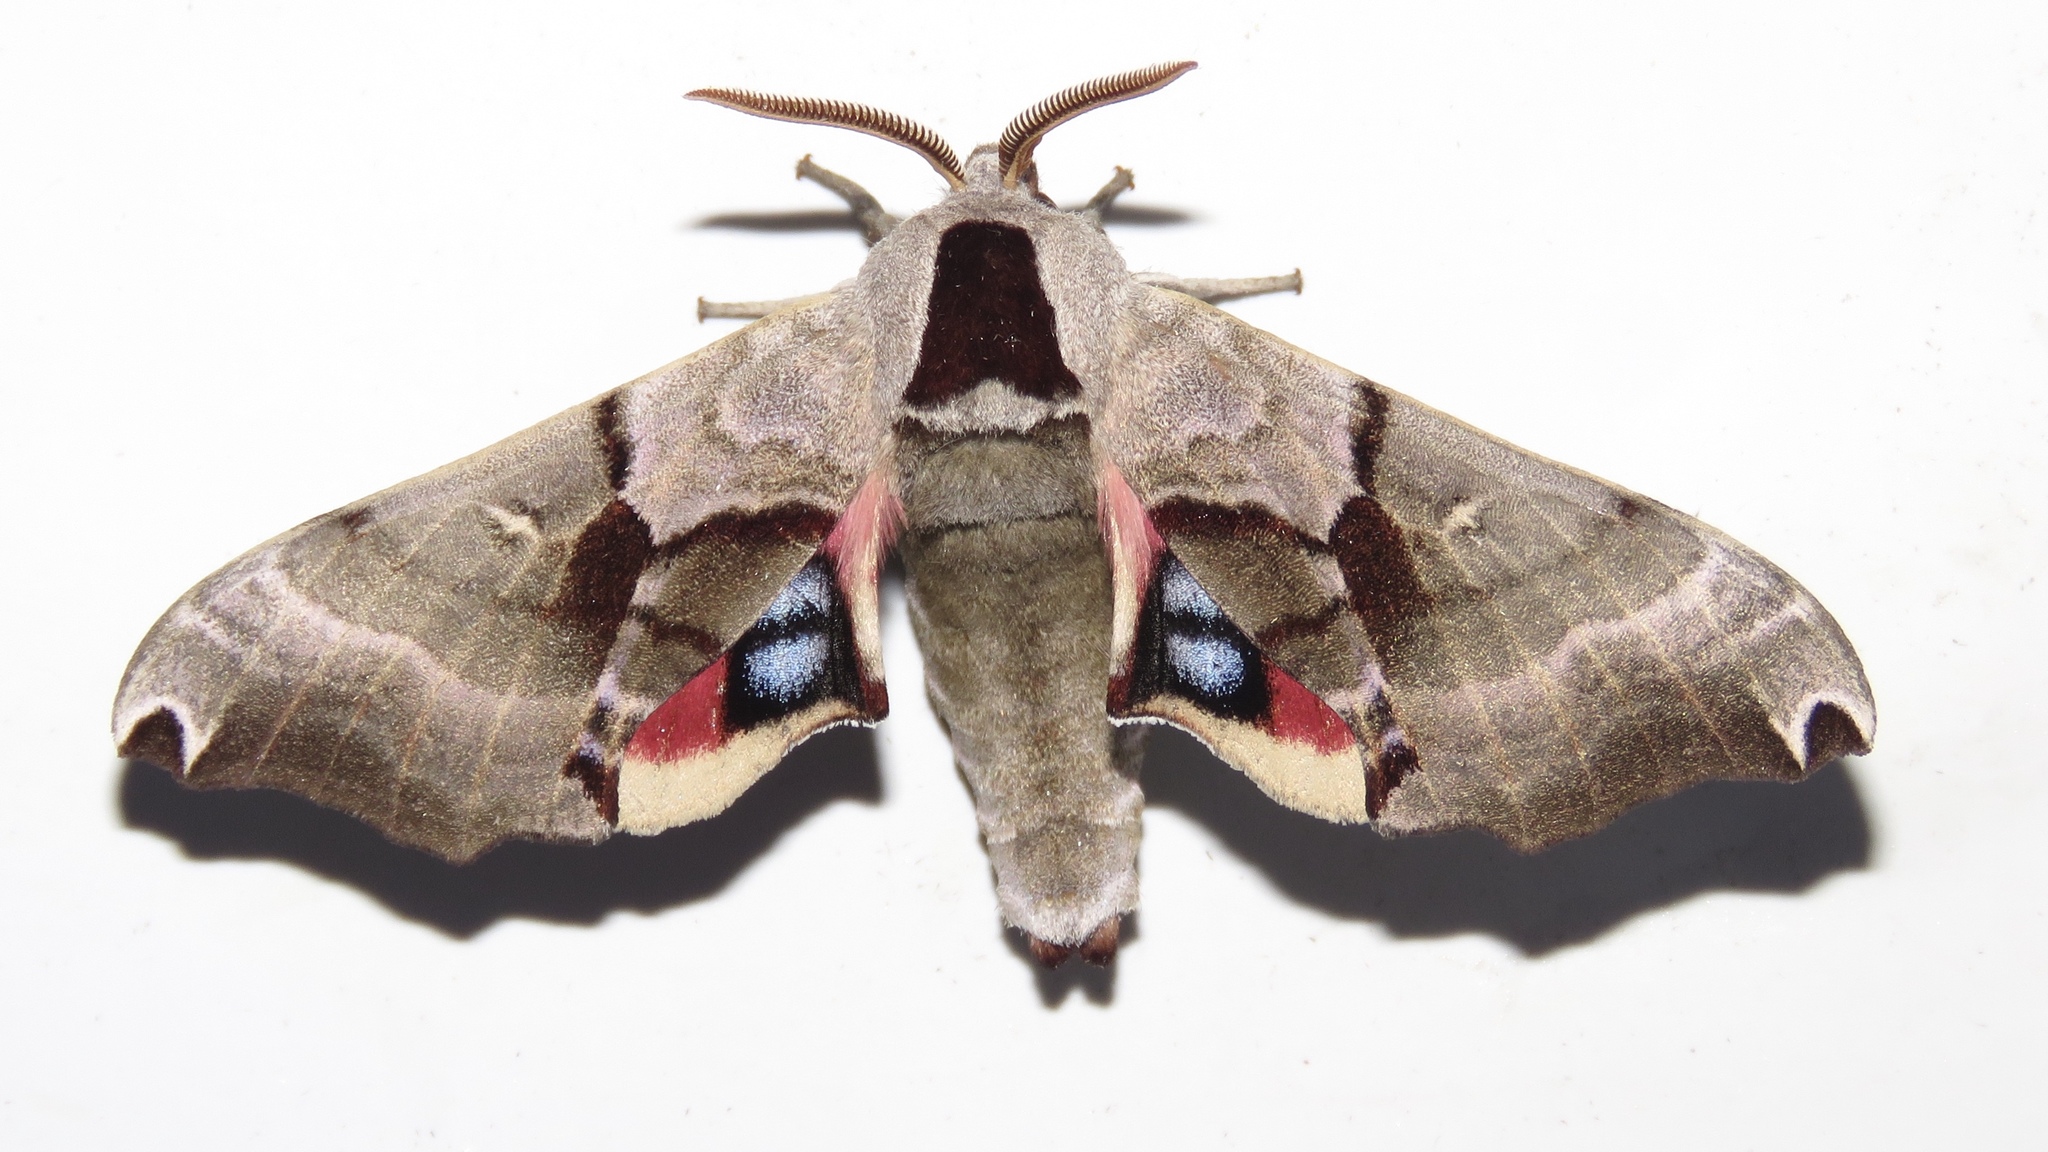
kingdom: Animalia
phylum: Arthropoda
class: Insecta
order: Lepidoptera
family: Sphingidae
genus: Smerinthus
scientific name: Smerinthus jamaicensis
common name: Twin spotted sphinx
